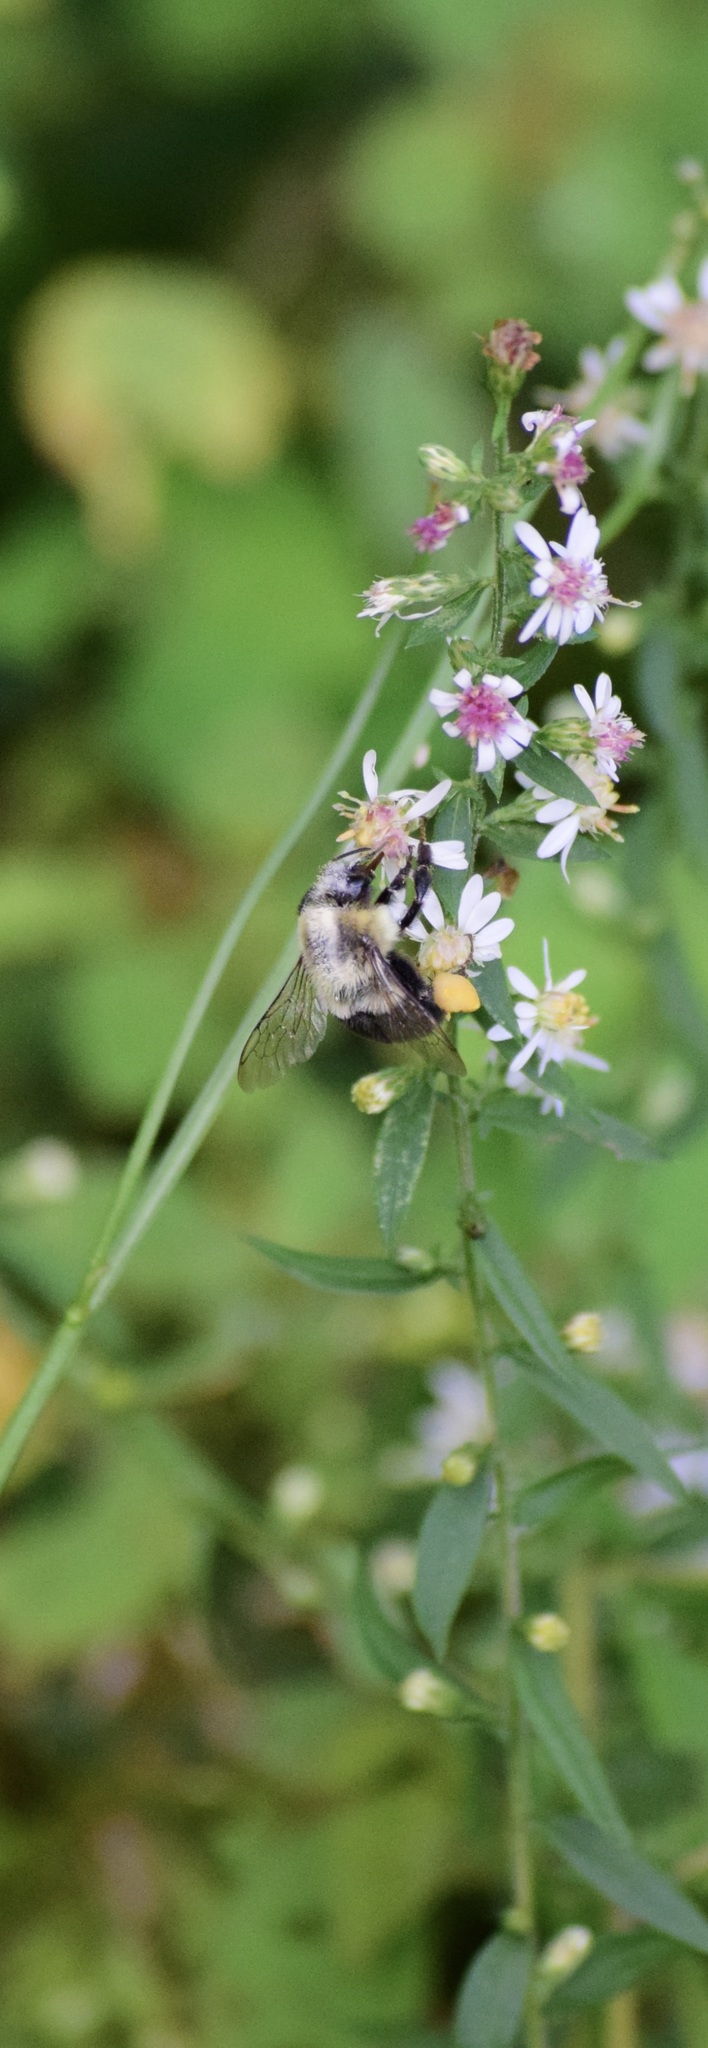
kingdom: Animalia
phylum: Arthropoda
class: Insecta
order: Hymenoptera
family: Apidae
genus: Bombus
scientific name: Bombus impatiens
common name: Common eastern bumble bee
